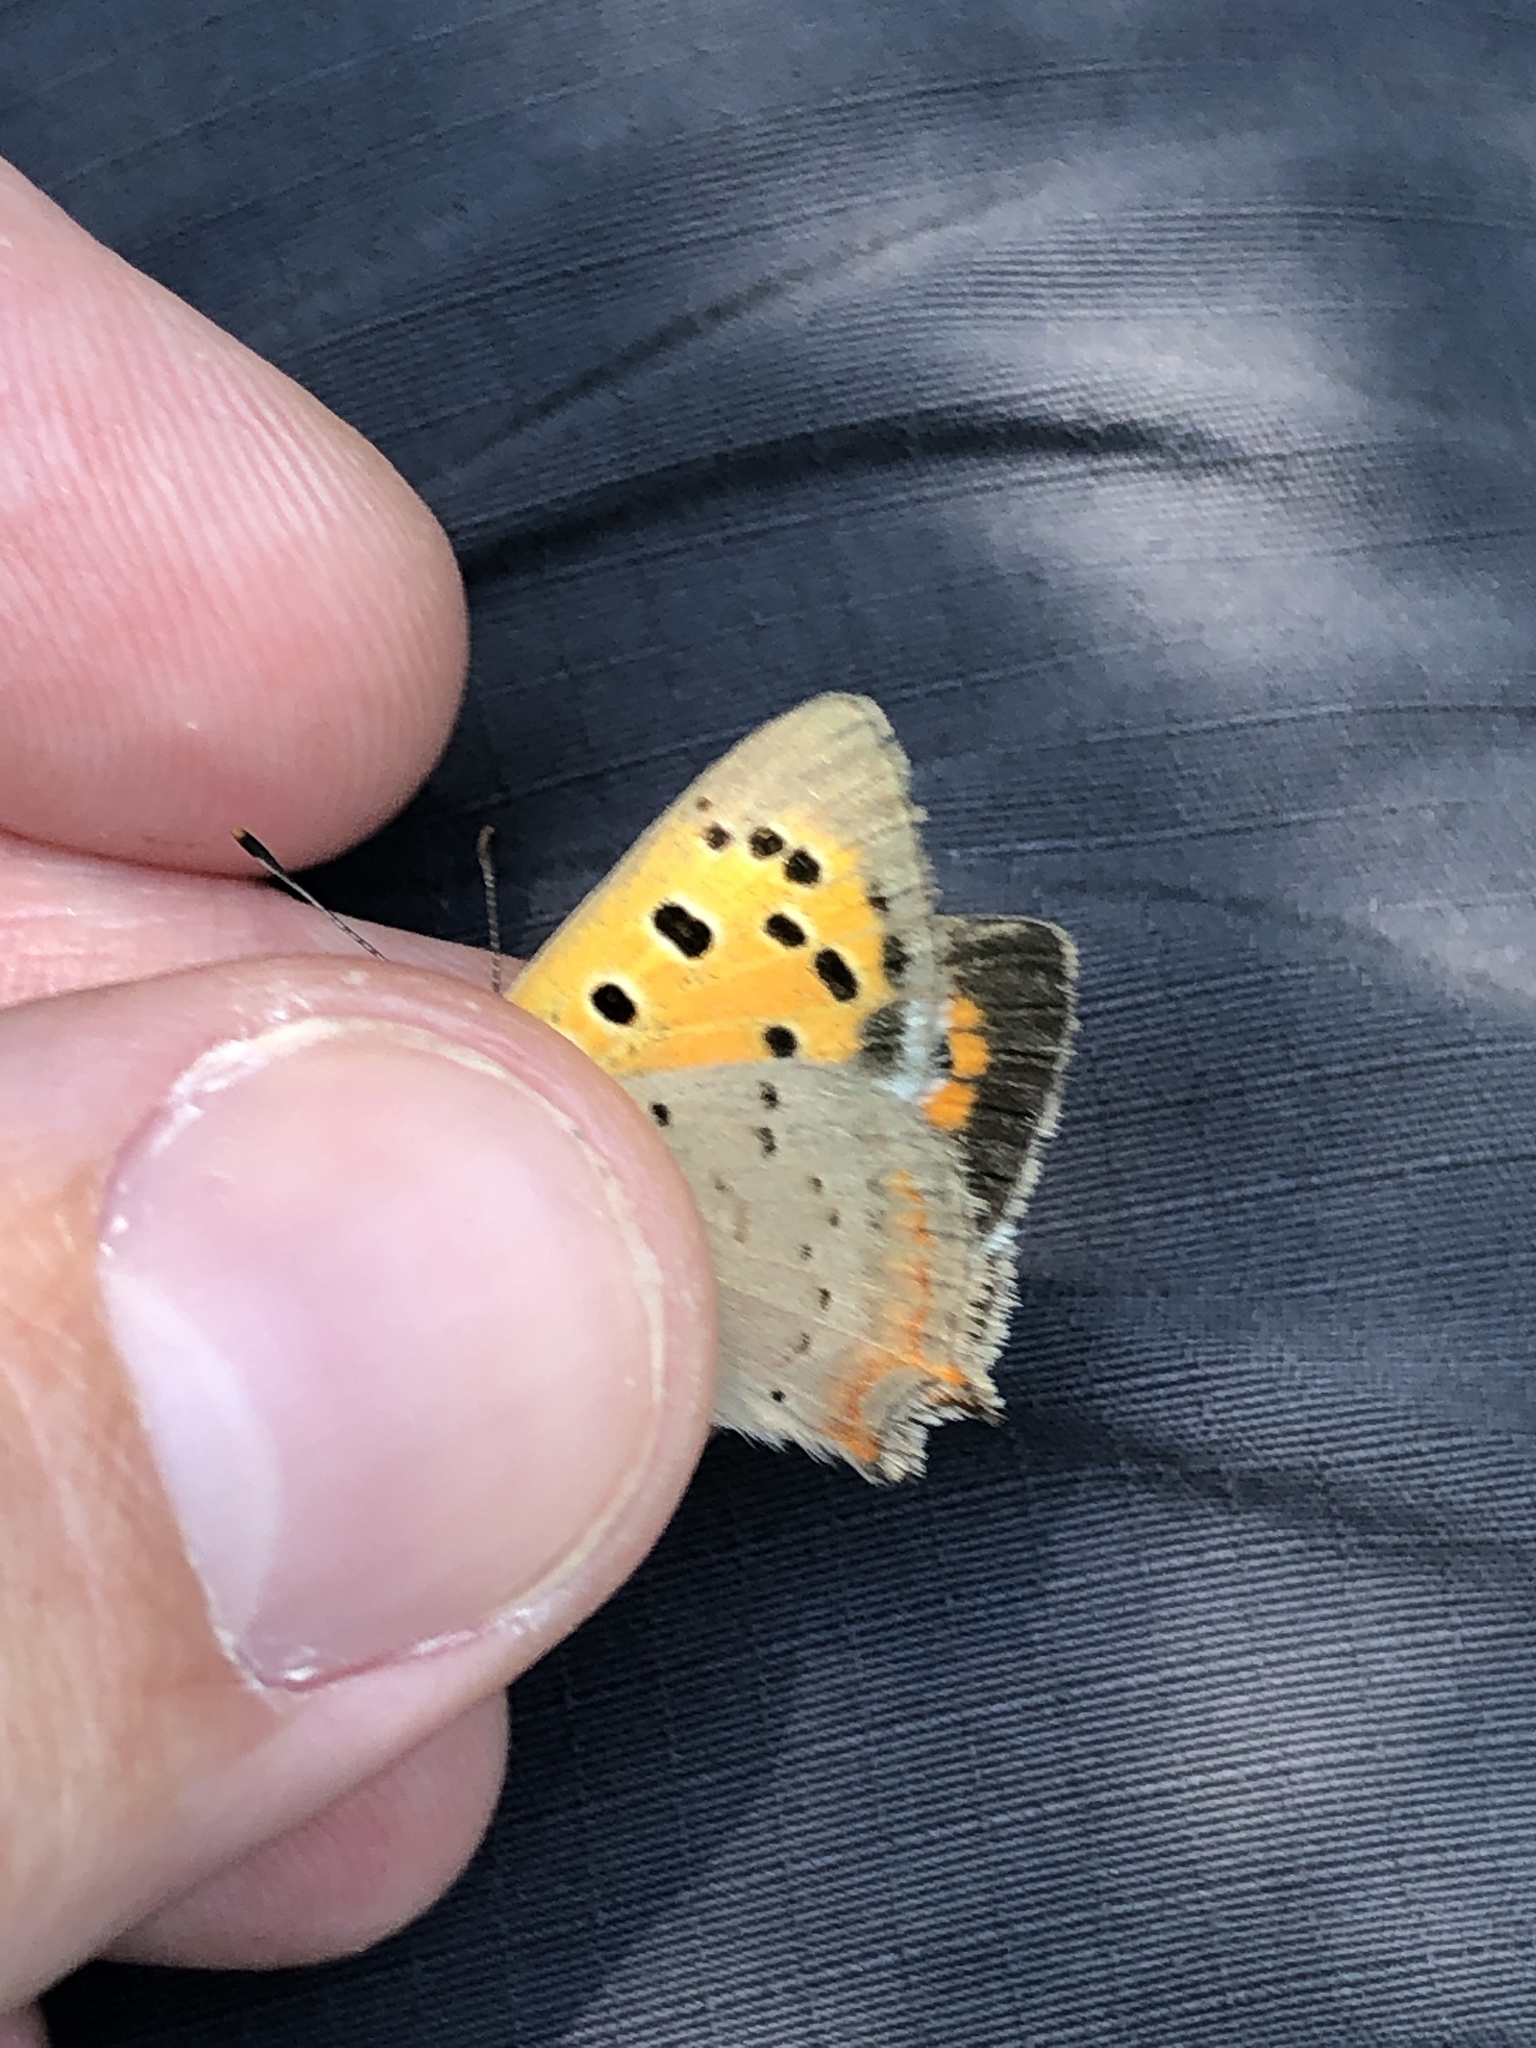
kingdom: Animalia
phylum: Arthropoda
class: Insecta
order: Lepidoptera
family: Lycaenidae
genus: Lycaena
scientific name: Lycaena phlaeas
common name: Small copper
